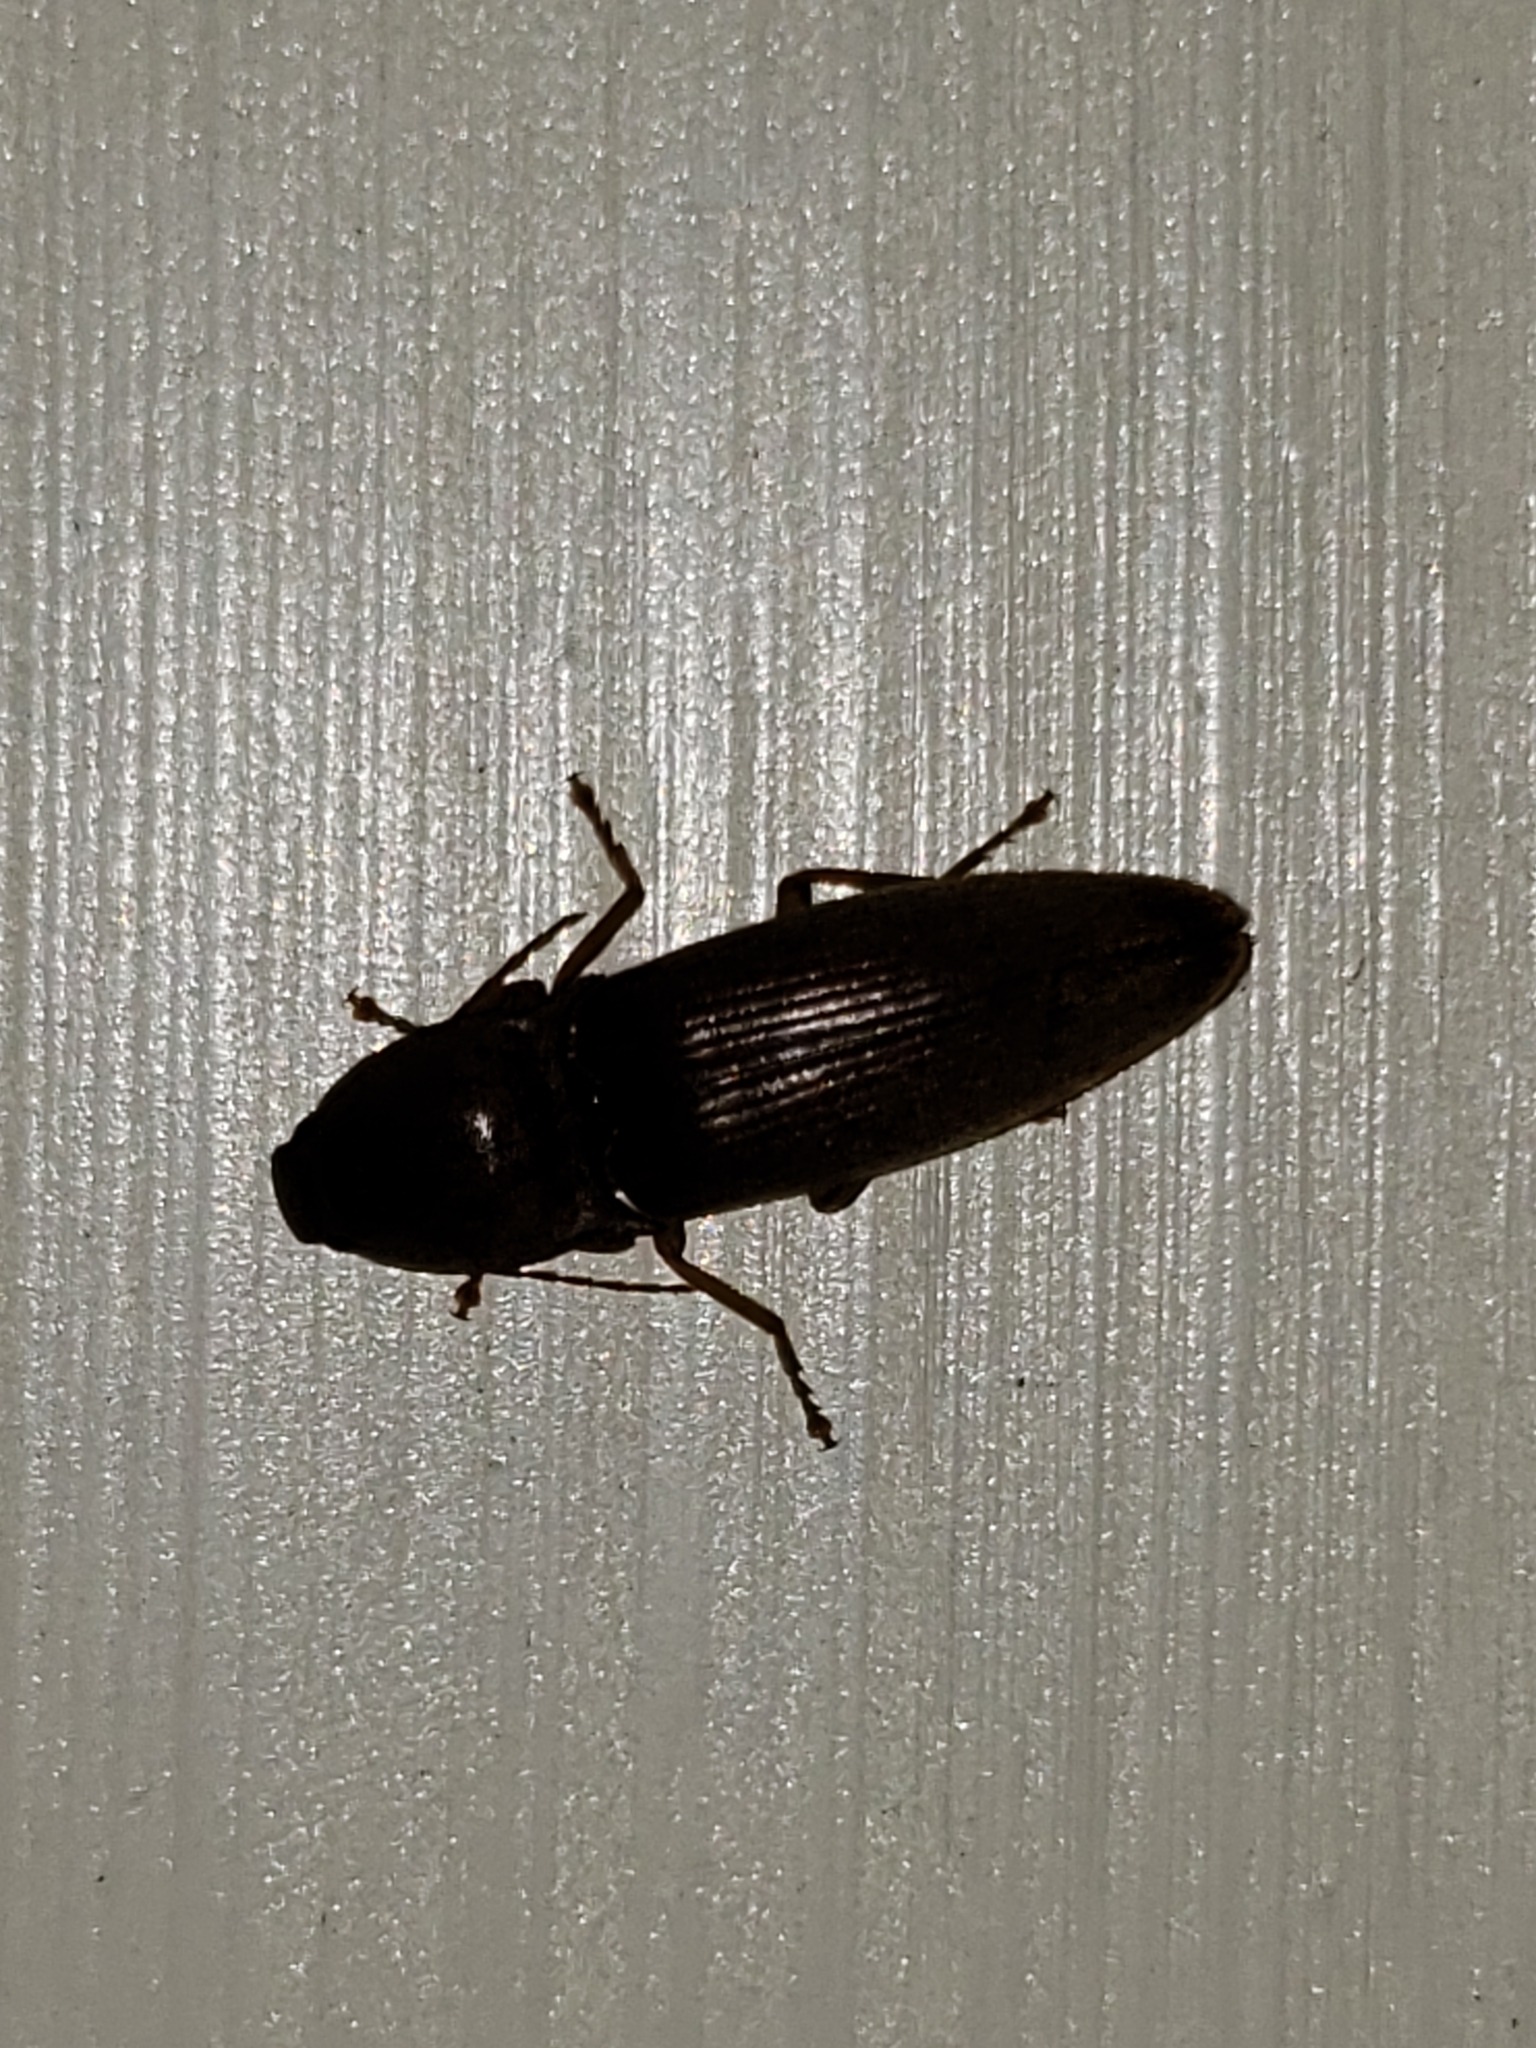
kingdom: Animalia
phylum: Arthropoda
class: Insecta
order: Coleoptera
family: Elateridae
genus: Monocrepidius
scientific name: Monocrepidius lividus
